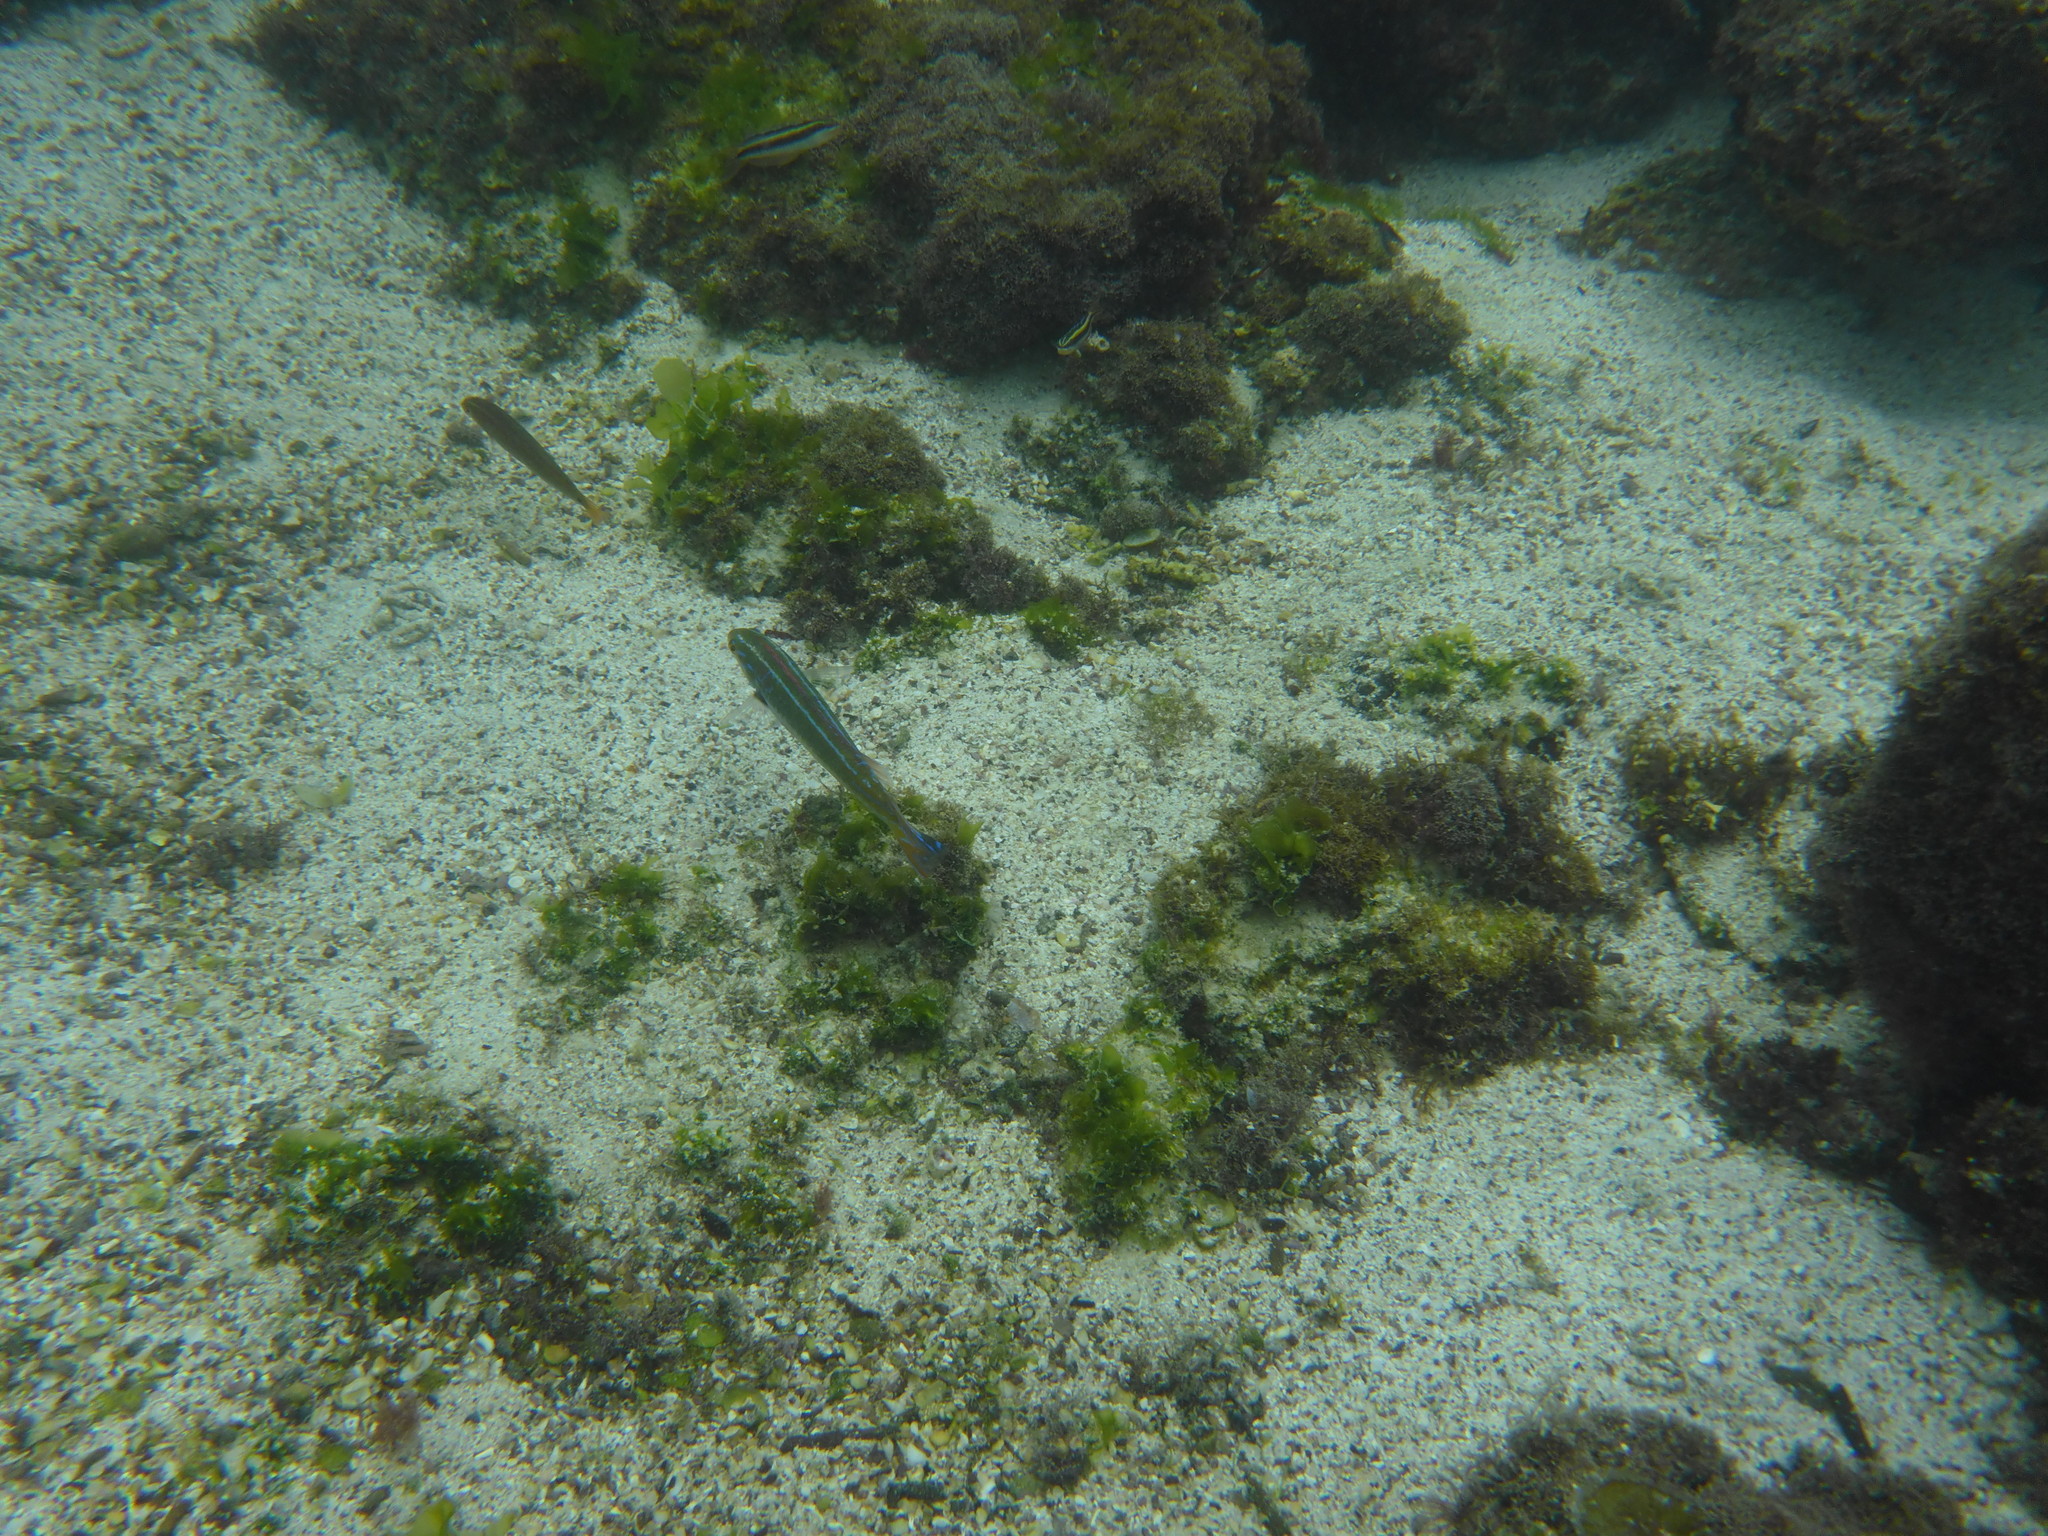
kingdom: Animalia
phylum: Chordata
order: Perciformes
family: Labridae
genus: Halichoeres
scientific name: Halichoeres dispilus
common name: Chameleon wrasse
